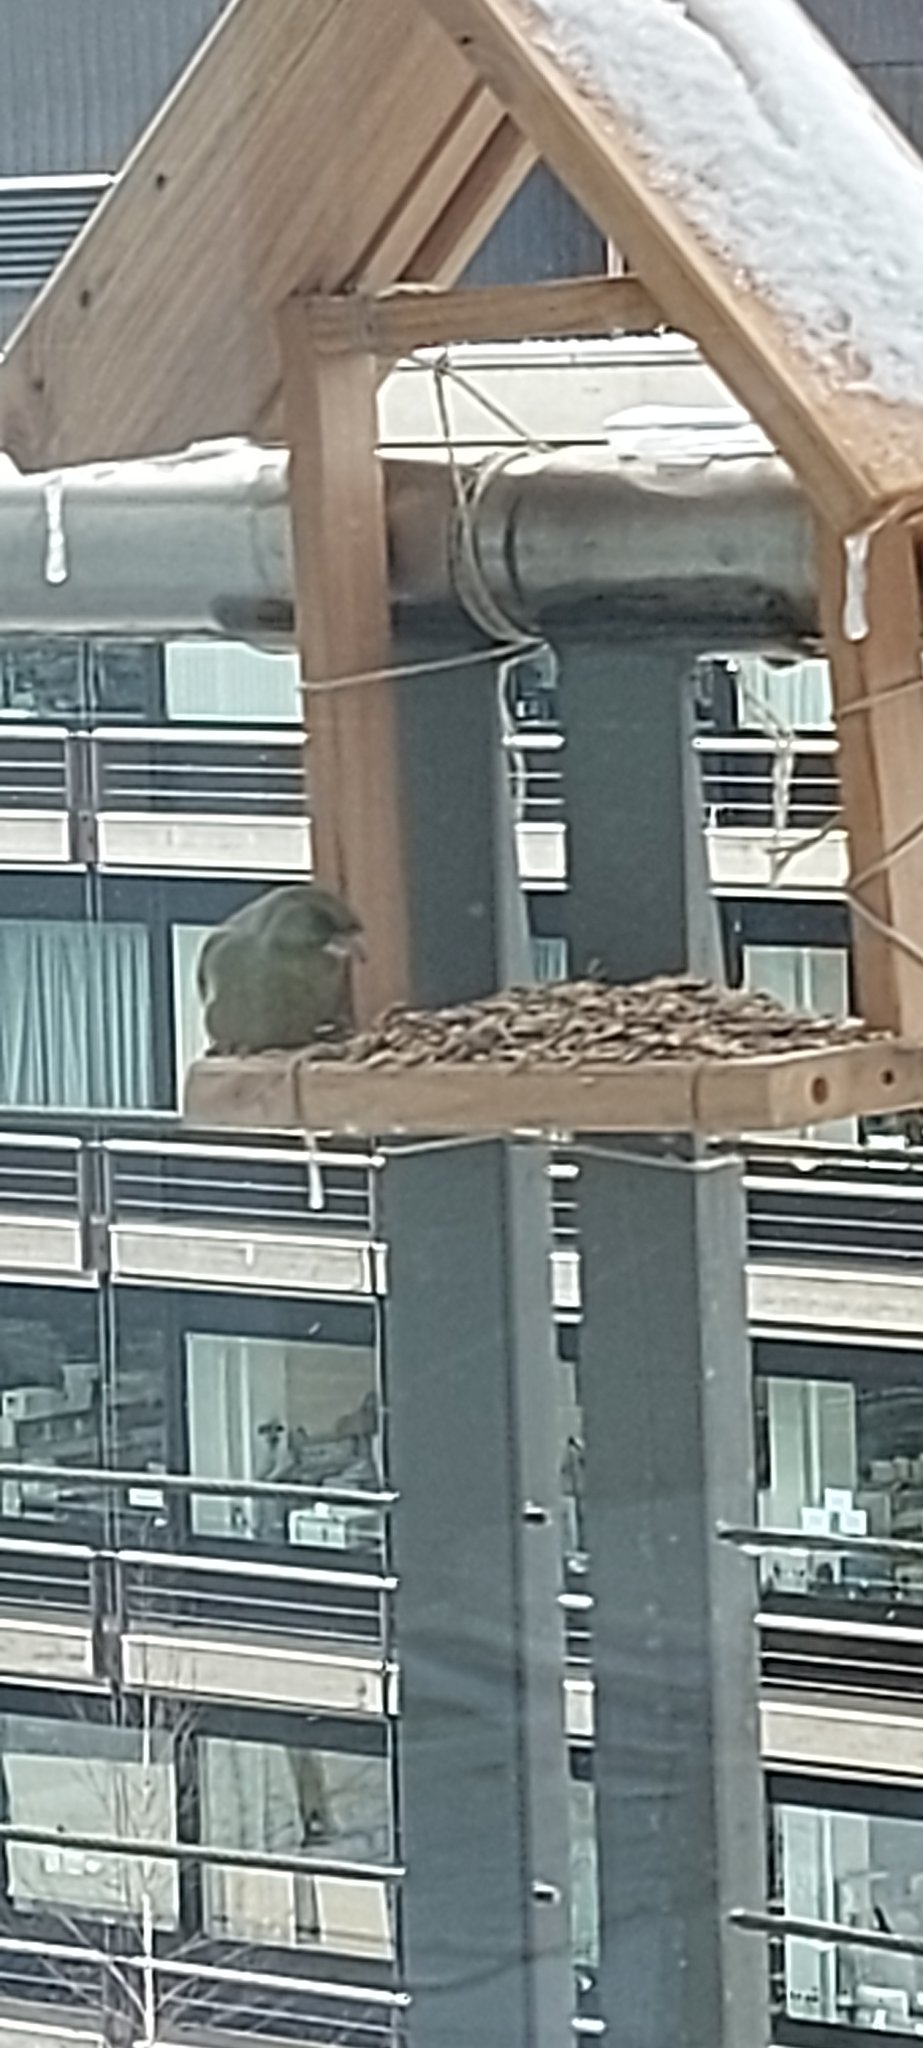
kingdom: Plantae
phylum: Tracheophyta
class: Liliopsida
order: Poales
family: Poaceae
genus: Chloris
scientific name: Chloris chloris
